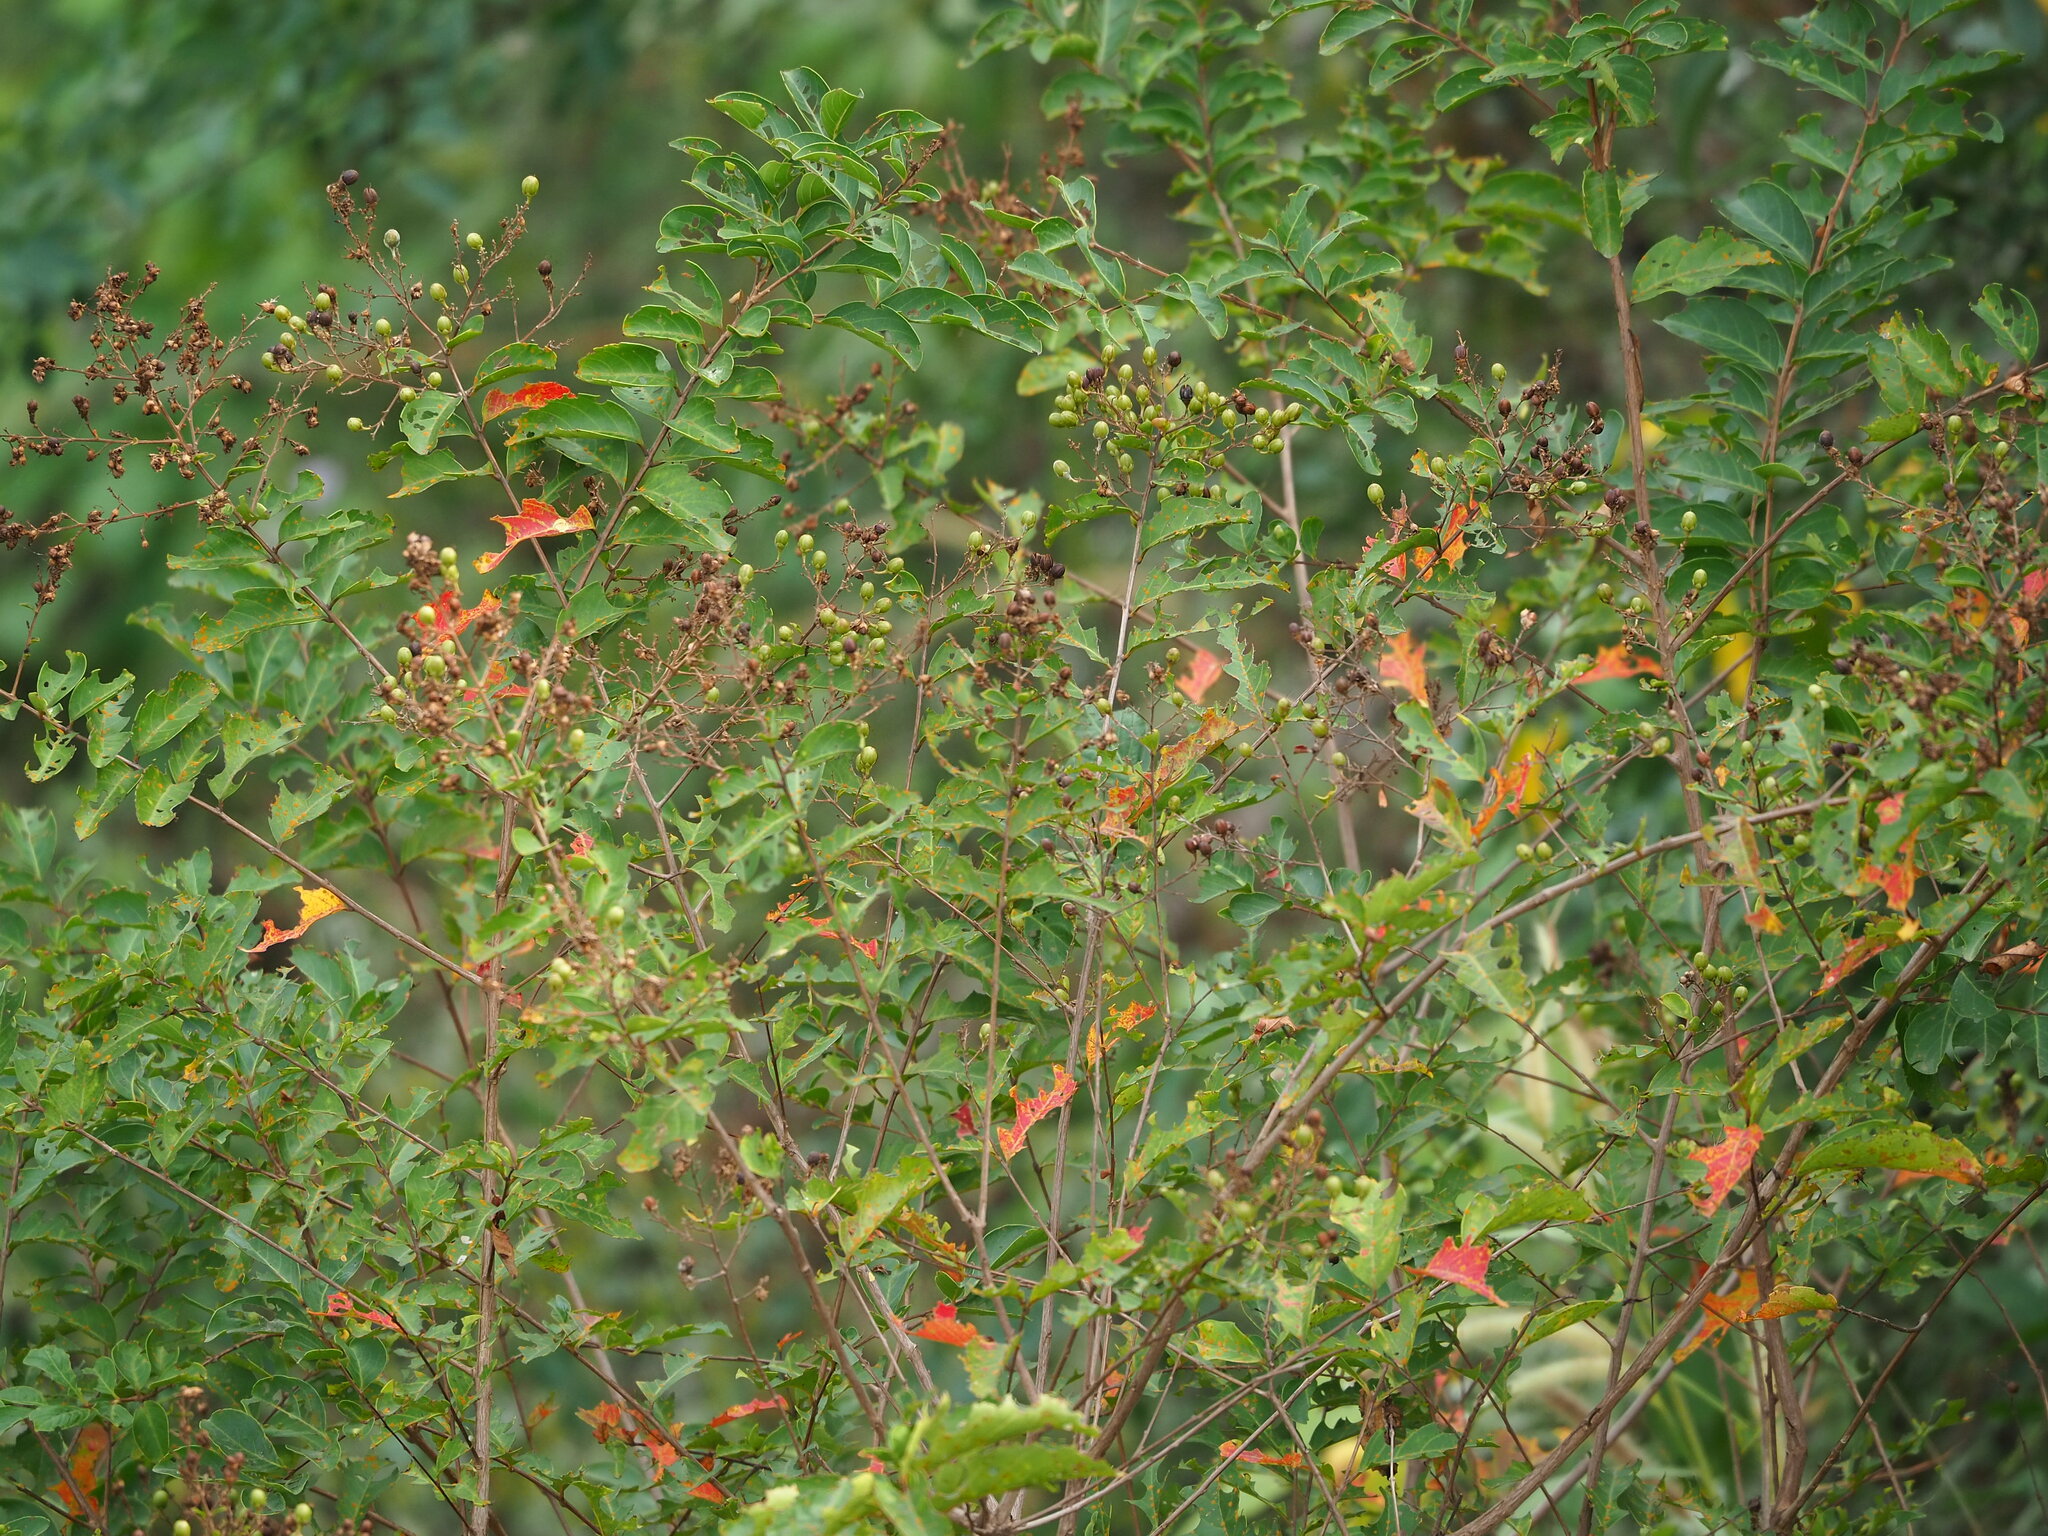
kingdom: Plantae
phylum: Tracheophyta
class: Magnoliopsida
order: Myrtales
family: Lythraceae
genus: Lagerstroemia
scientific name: Lagerstroemia subcostata
